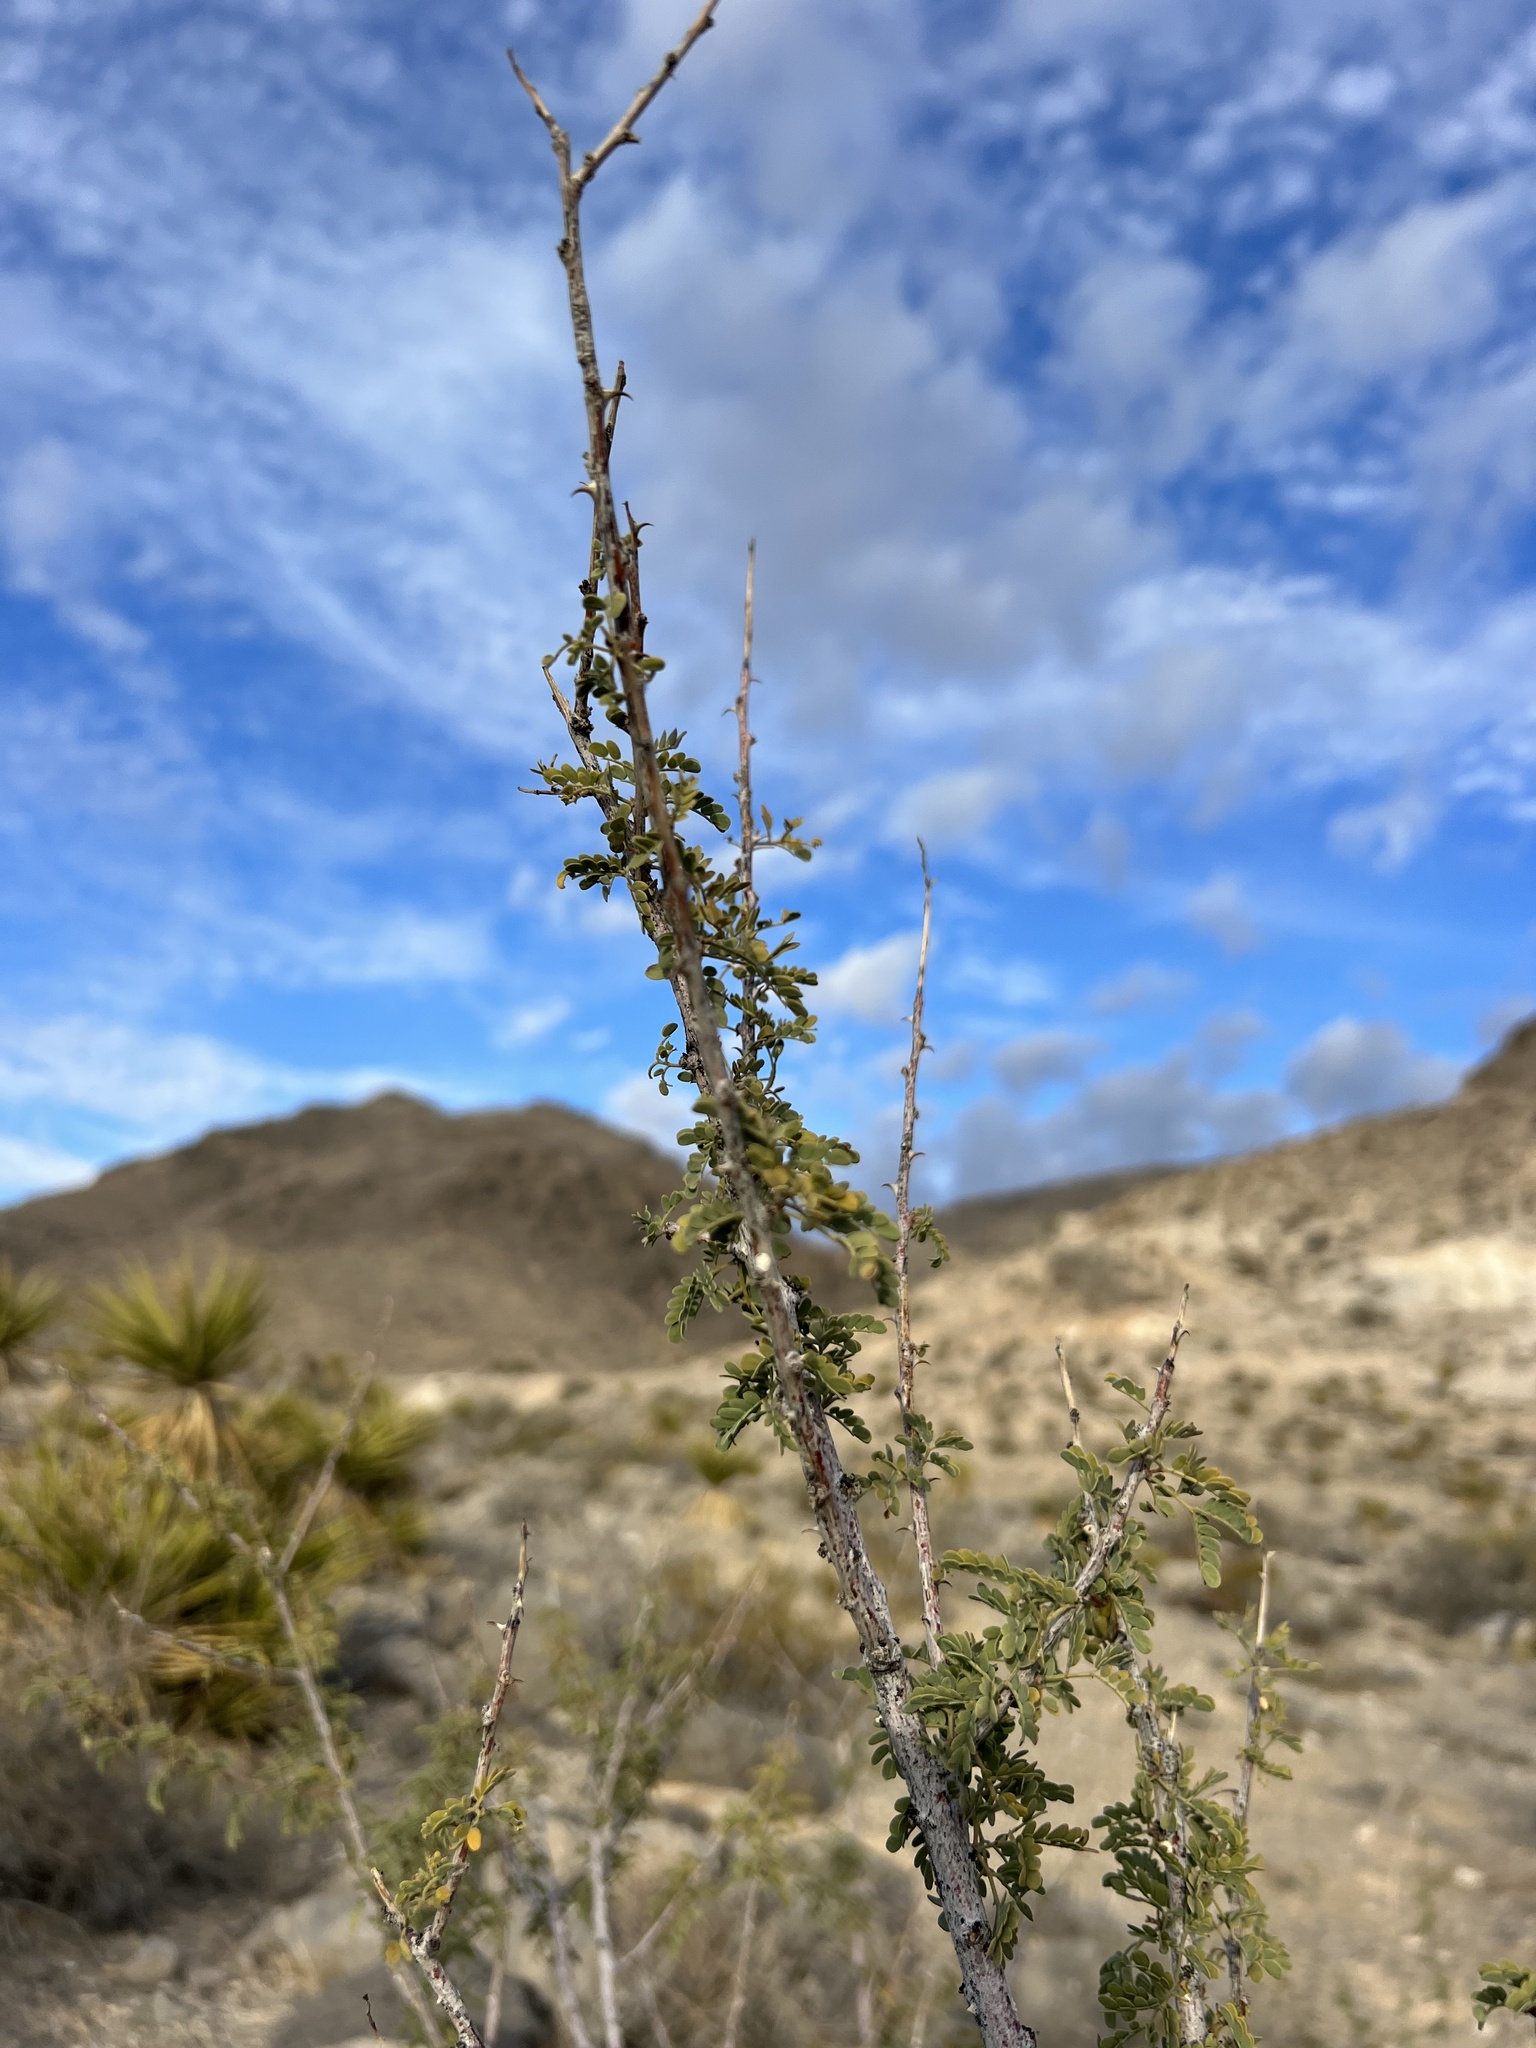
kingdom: Plantae
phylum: Tracheophyta
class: Magnoliopsida
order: Fabales
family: Fabaceae
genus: Senegalia
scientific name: Senegalia greggii
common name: Texas-mimosa
